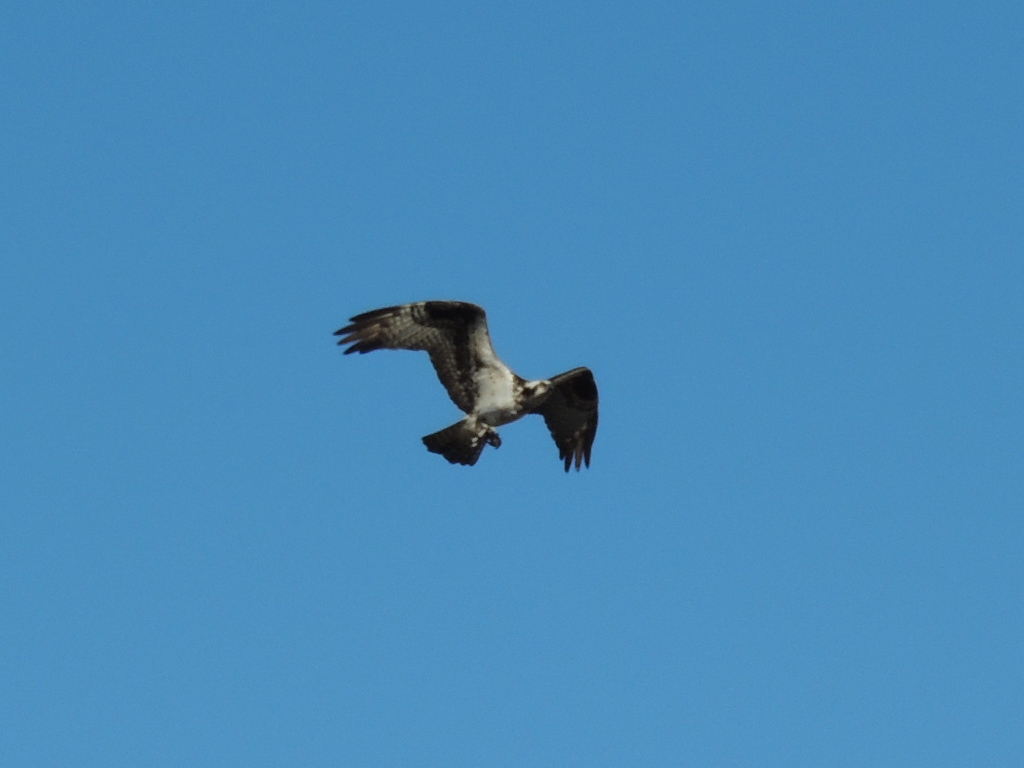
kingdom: Animalia
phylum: Chordata
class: Aves
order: Accipitriformes
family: Pandionidae
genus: Pandion
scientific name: Pandion haliaetus
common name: Osprey
